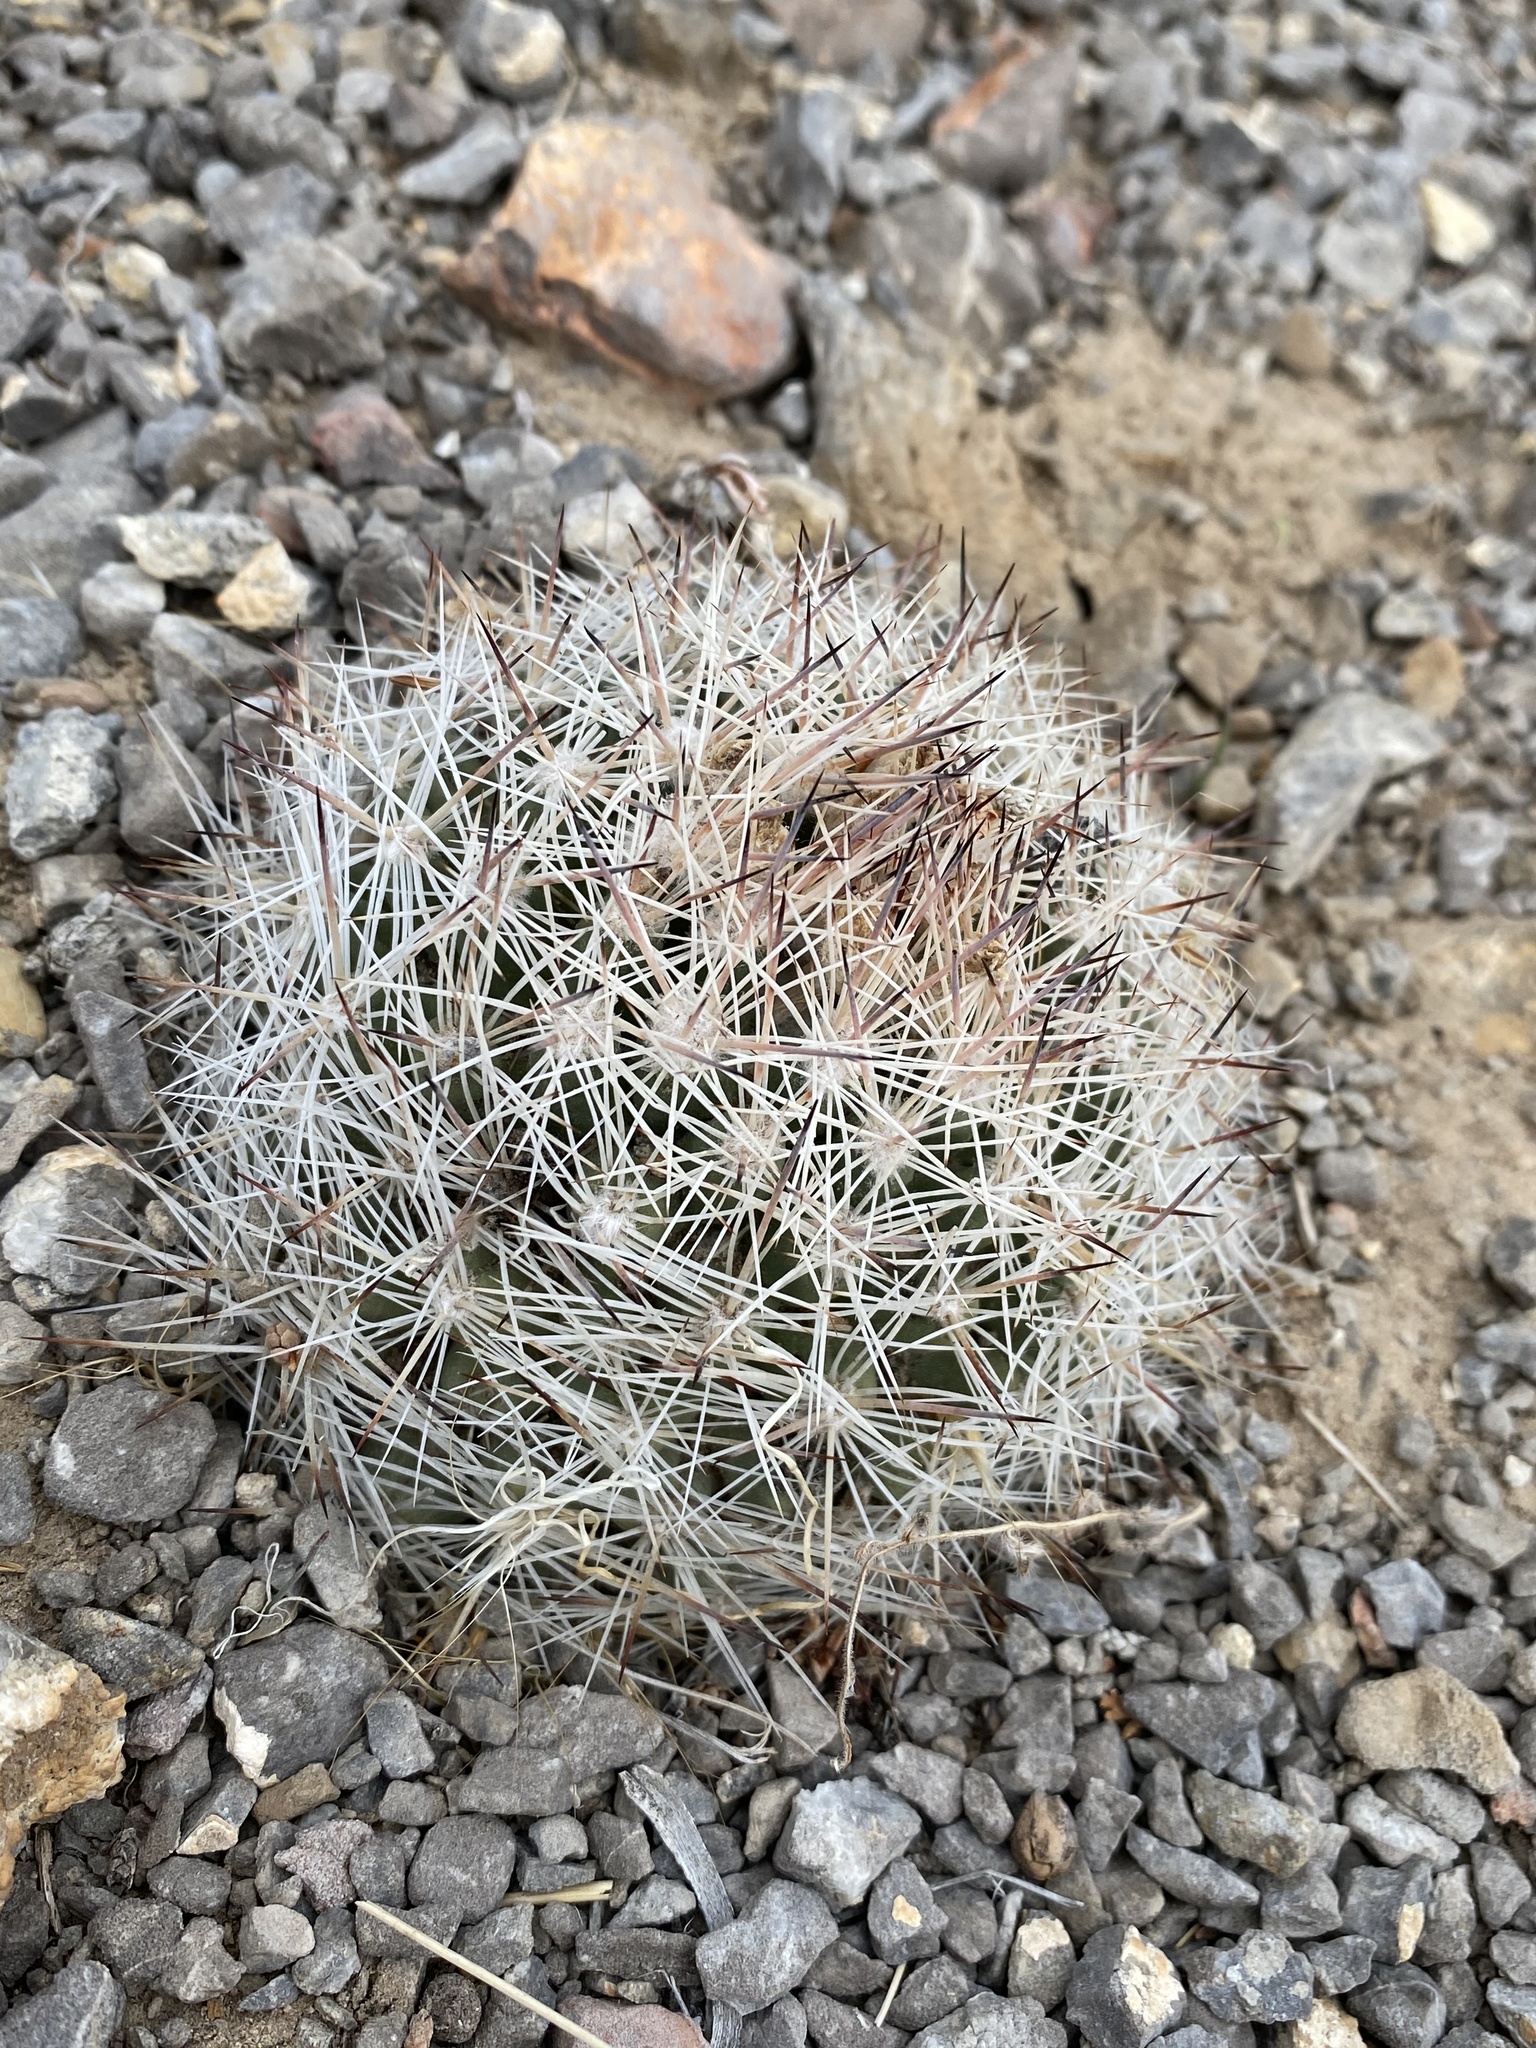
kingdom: Plantae
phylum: Tracheophyta
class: Magnoliopsida
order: Caryophyllales
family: Cactaceae
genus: Pelecyphora
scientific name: Pelecyphora vivipara
